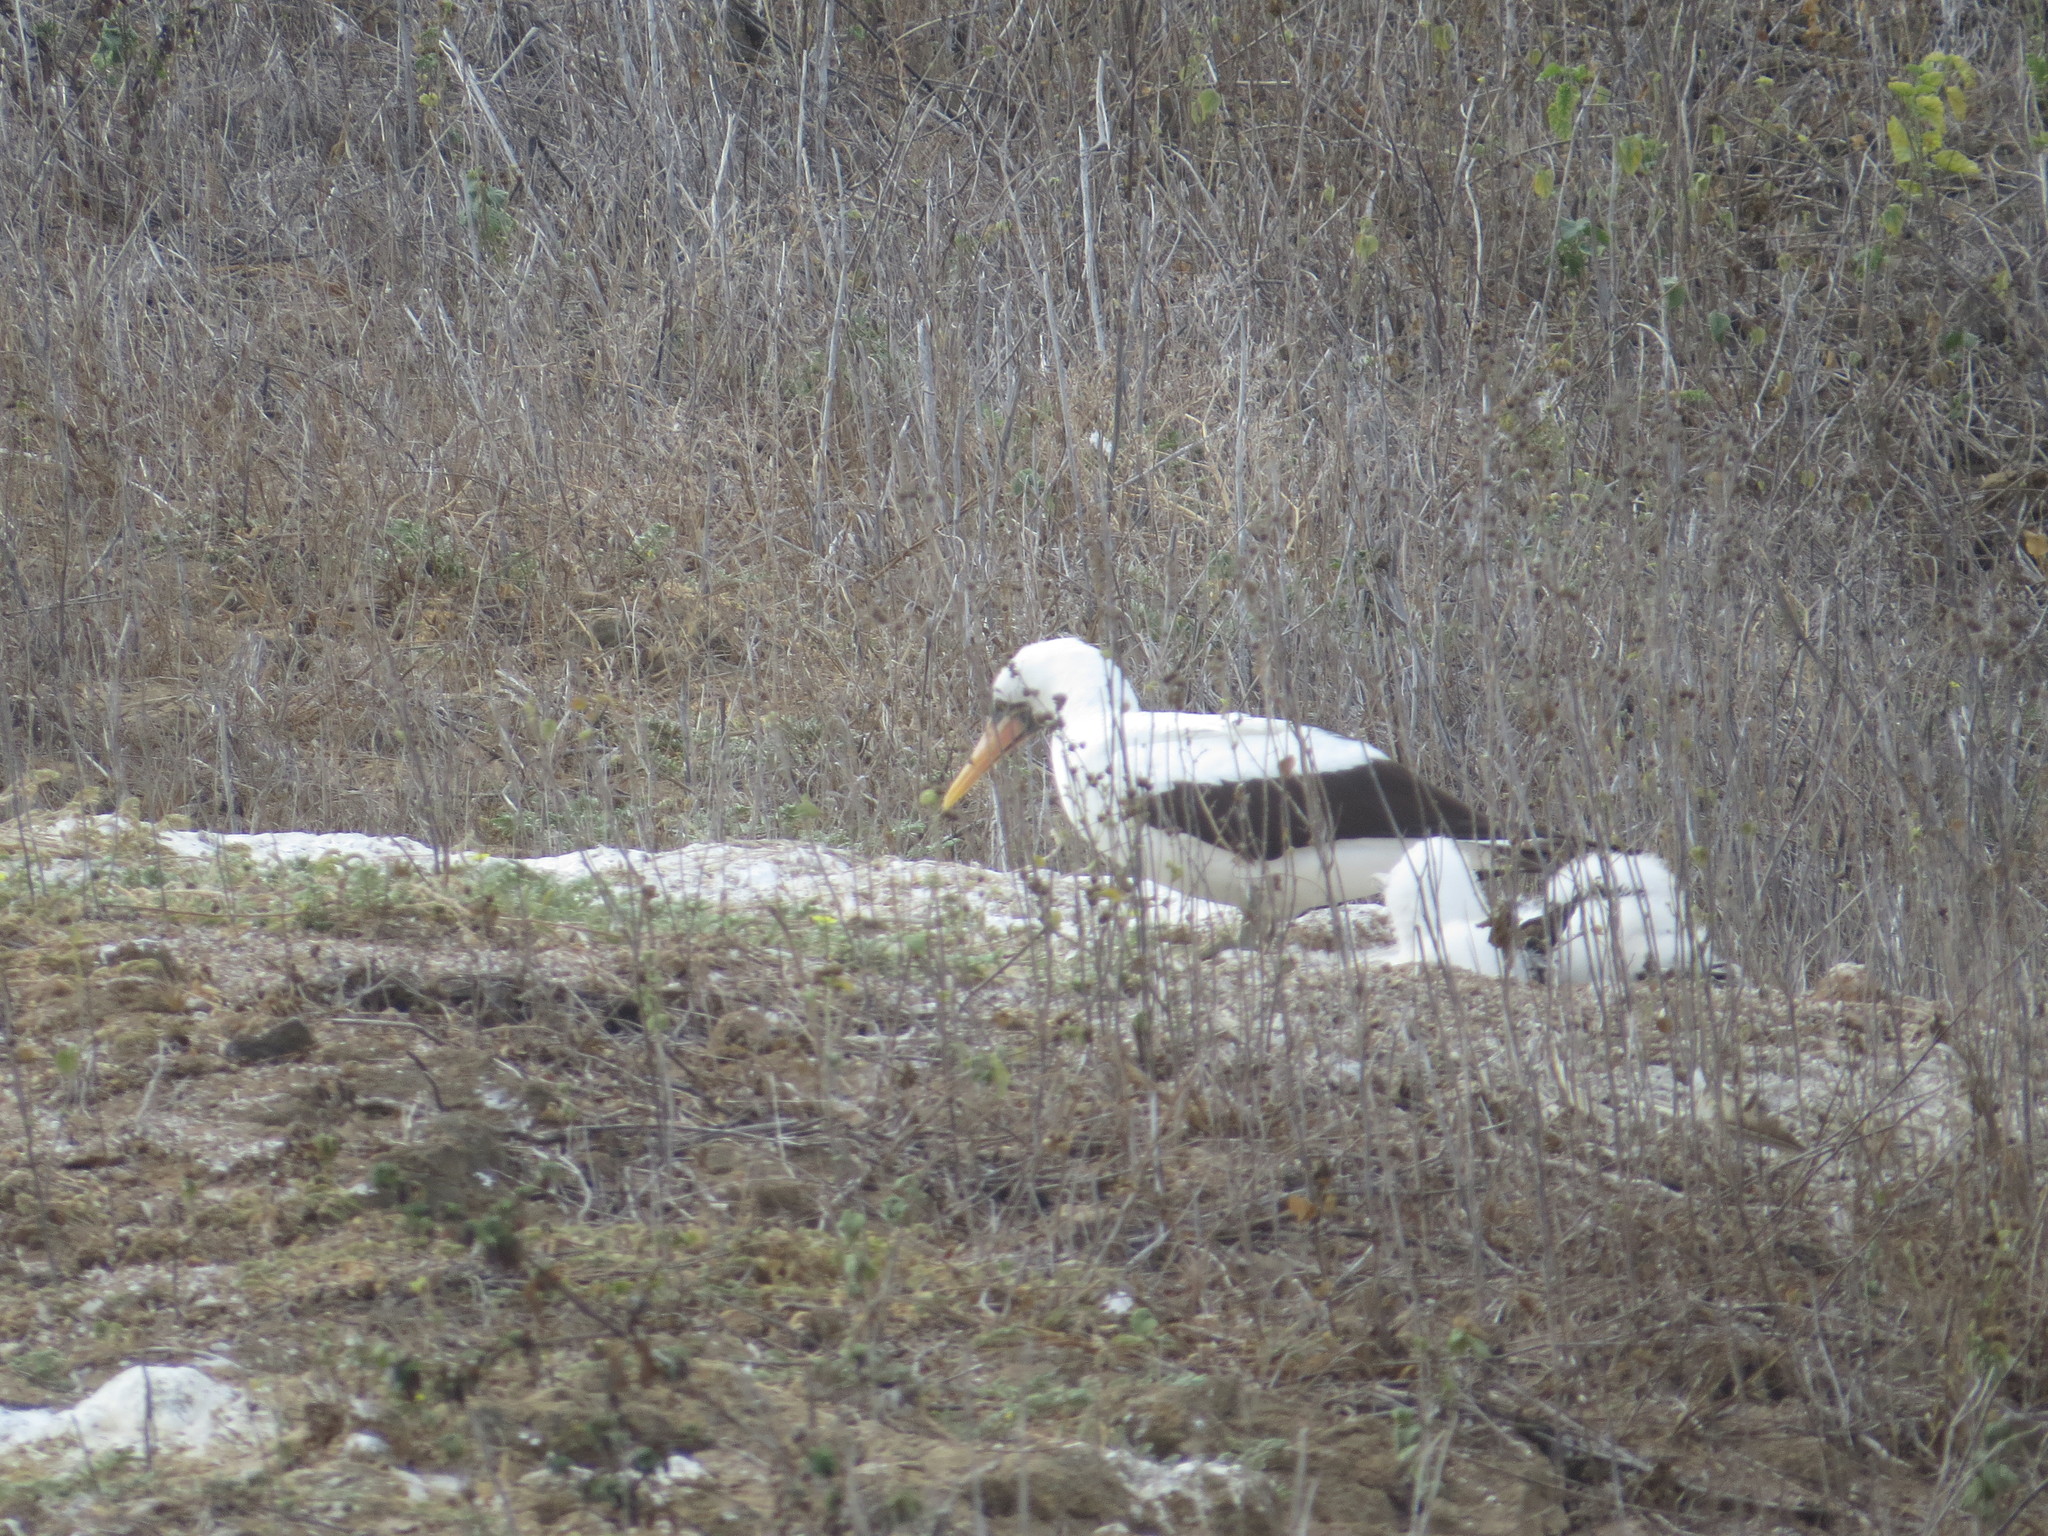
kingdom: Animalia
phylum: Chordata
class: Aves
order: Suliformes
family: Sulidae
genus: Sula
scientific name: Sula granti
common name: Nazca booby
